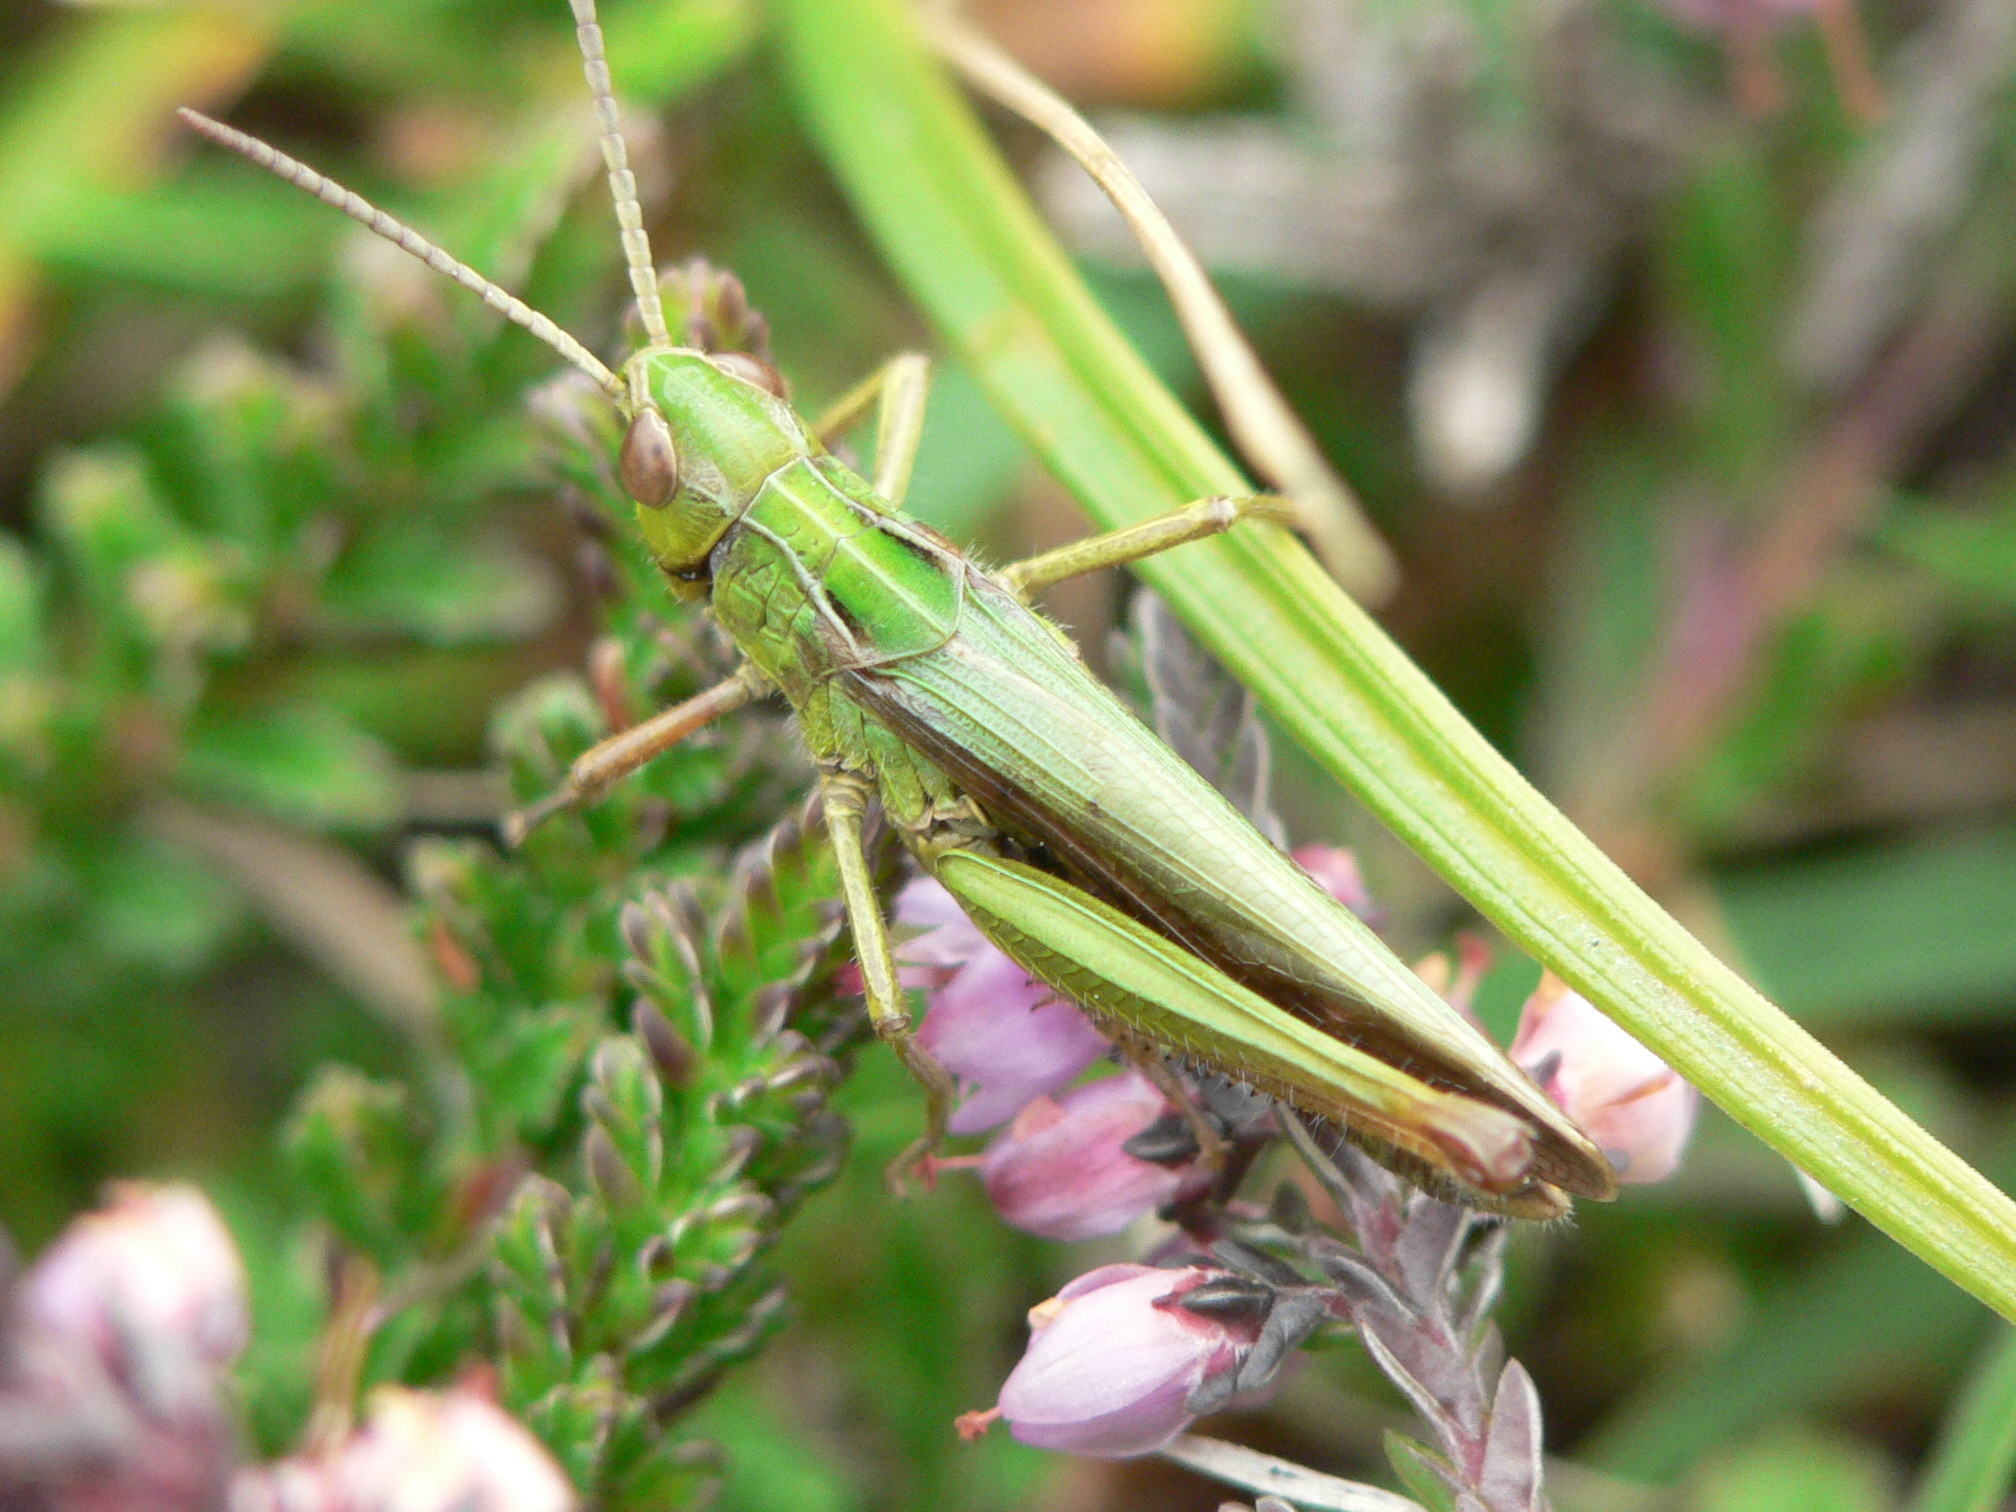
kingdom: Animalia
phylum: Arthropoda
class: Insecta
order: Orthoptera
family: Acrididae
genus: Omocestus
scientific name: Omocestus viridulus
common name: Common green grasshopper
